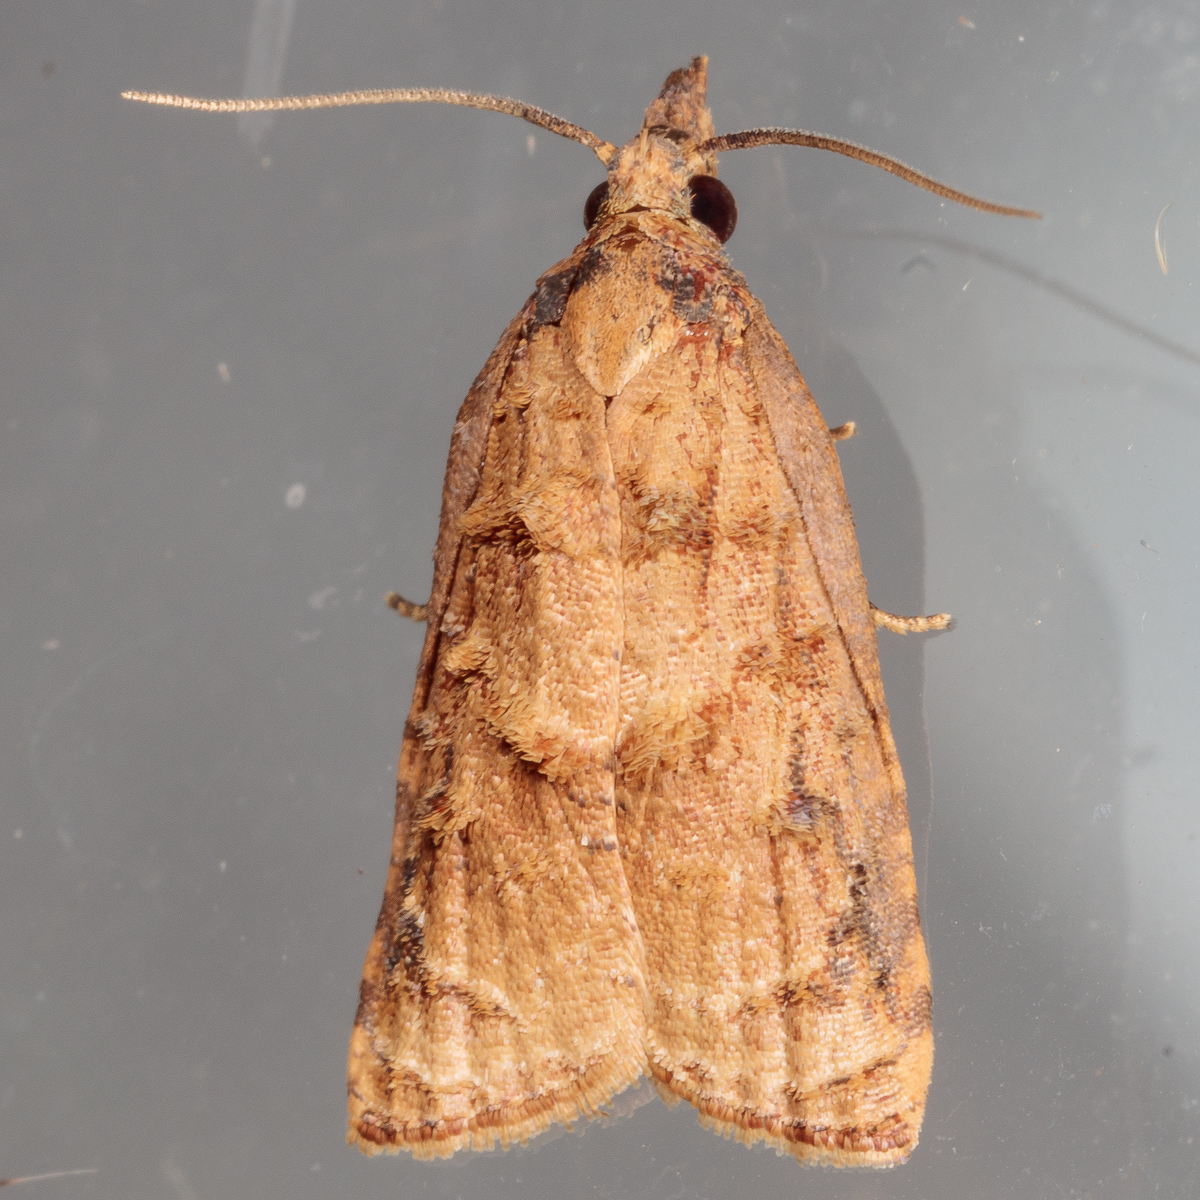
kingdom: Animalia
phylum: Arthropoda
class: Insecta
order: Lepidoptera
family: Tortricidae
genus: Platynota
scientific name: Platynota rostrana
